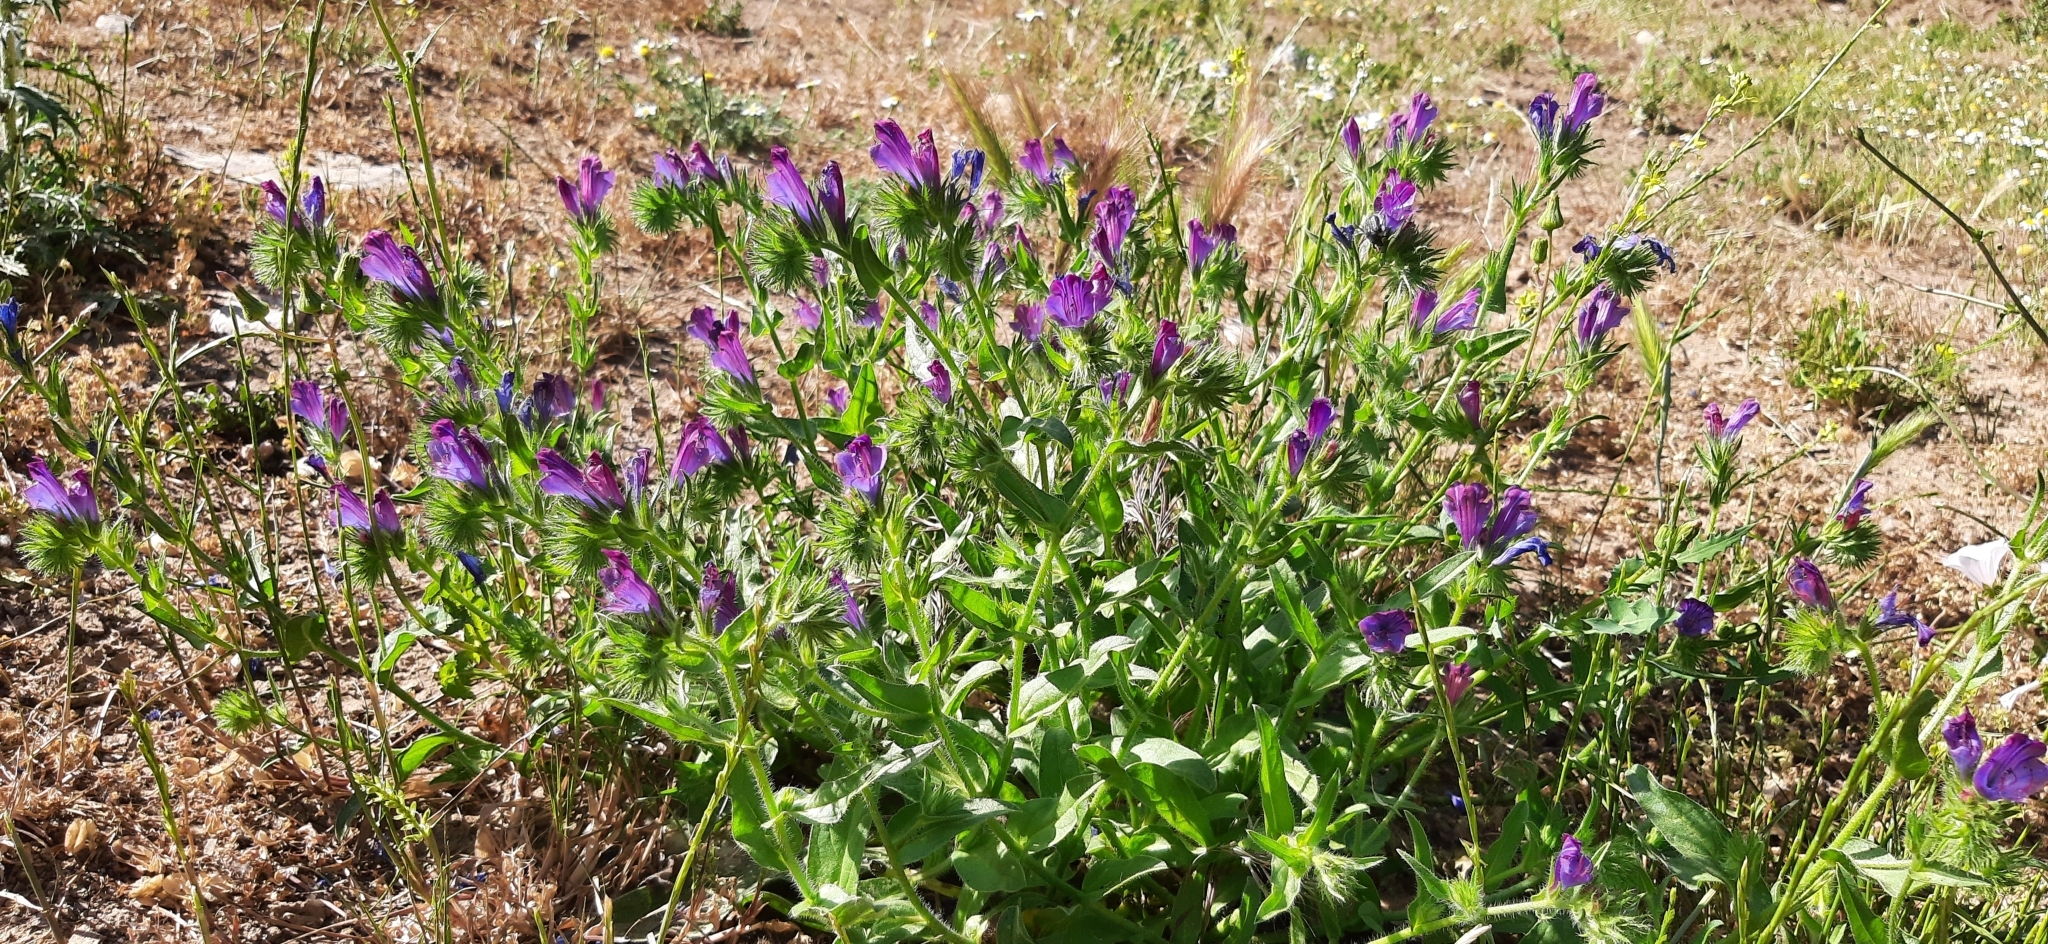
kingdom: Plantae
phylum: Tracheophyta
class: Magnoliopsida
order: Boraginales
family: Boraginaceae
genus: Echium
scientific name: Echium plantagineum
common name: Purple viper's-bugloss
